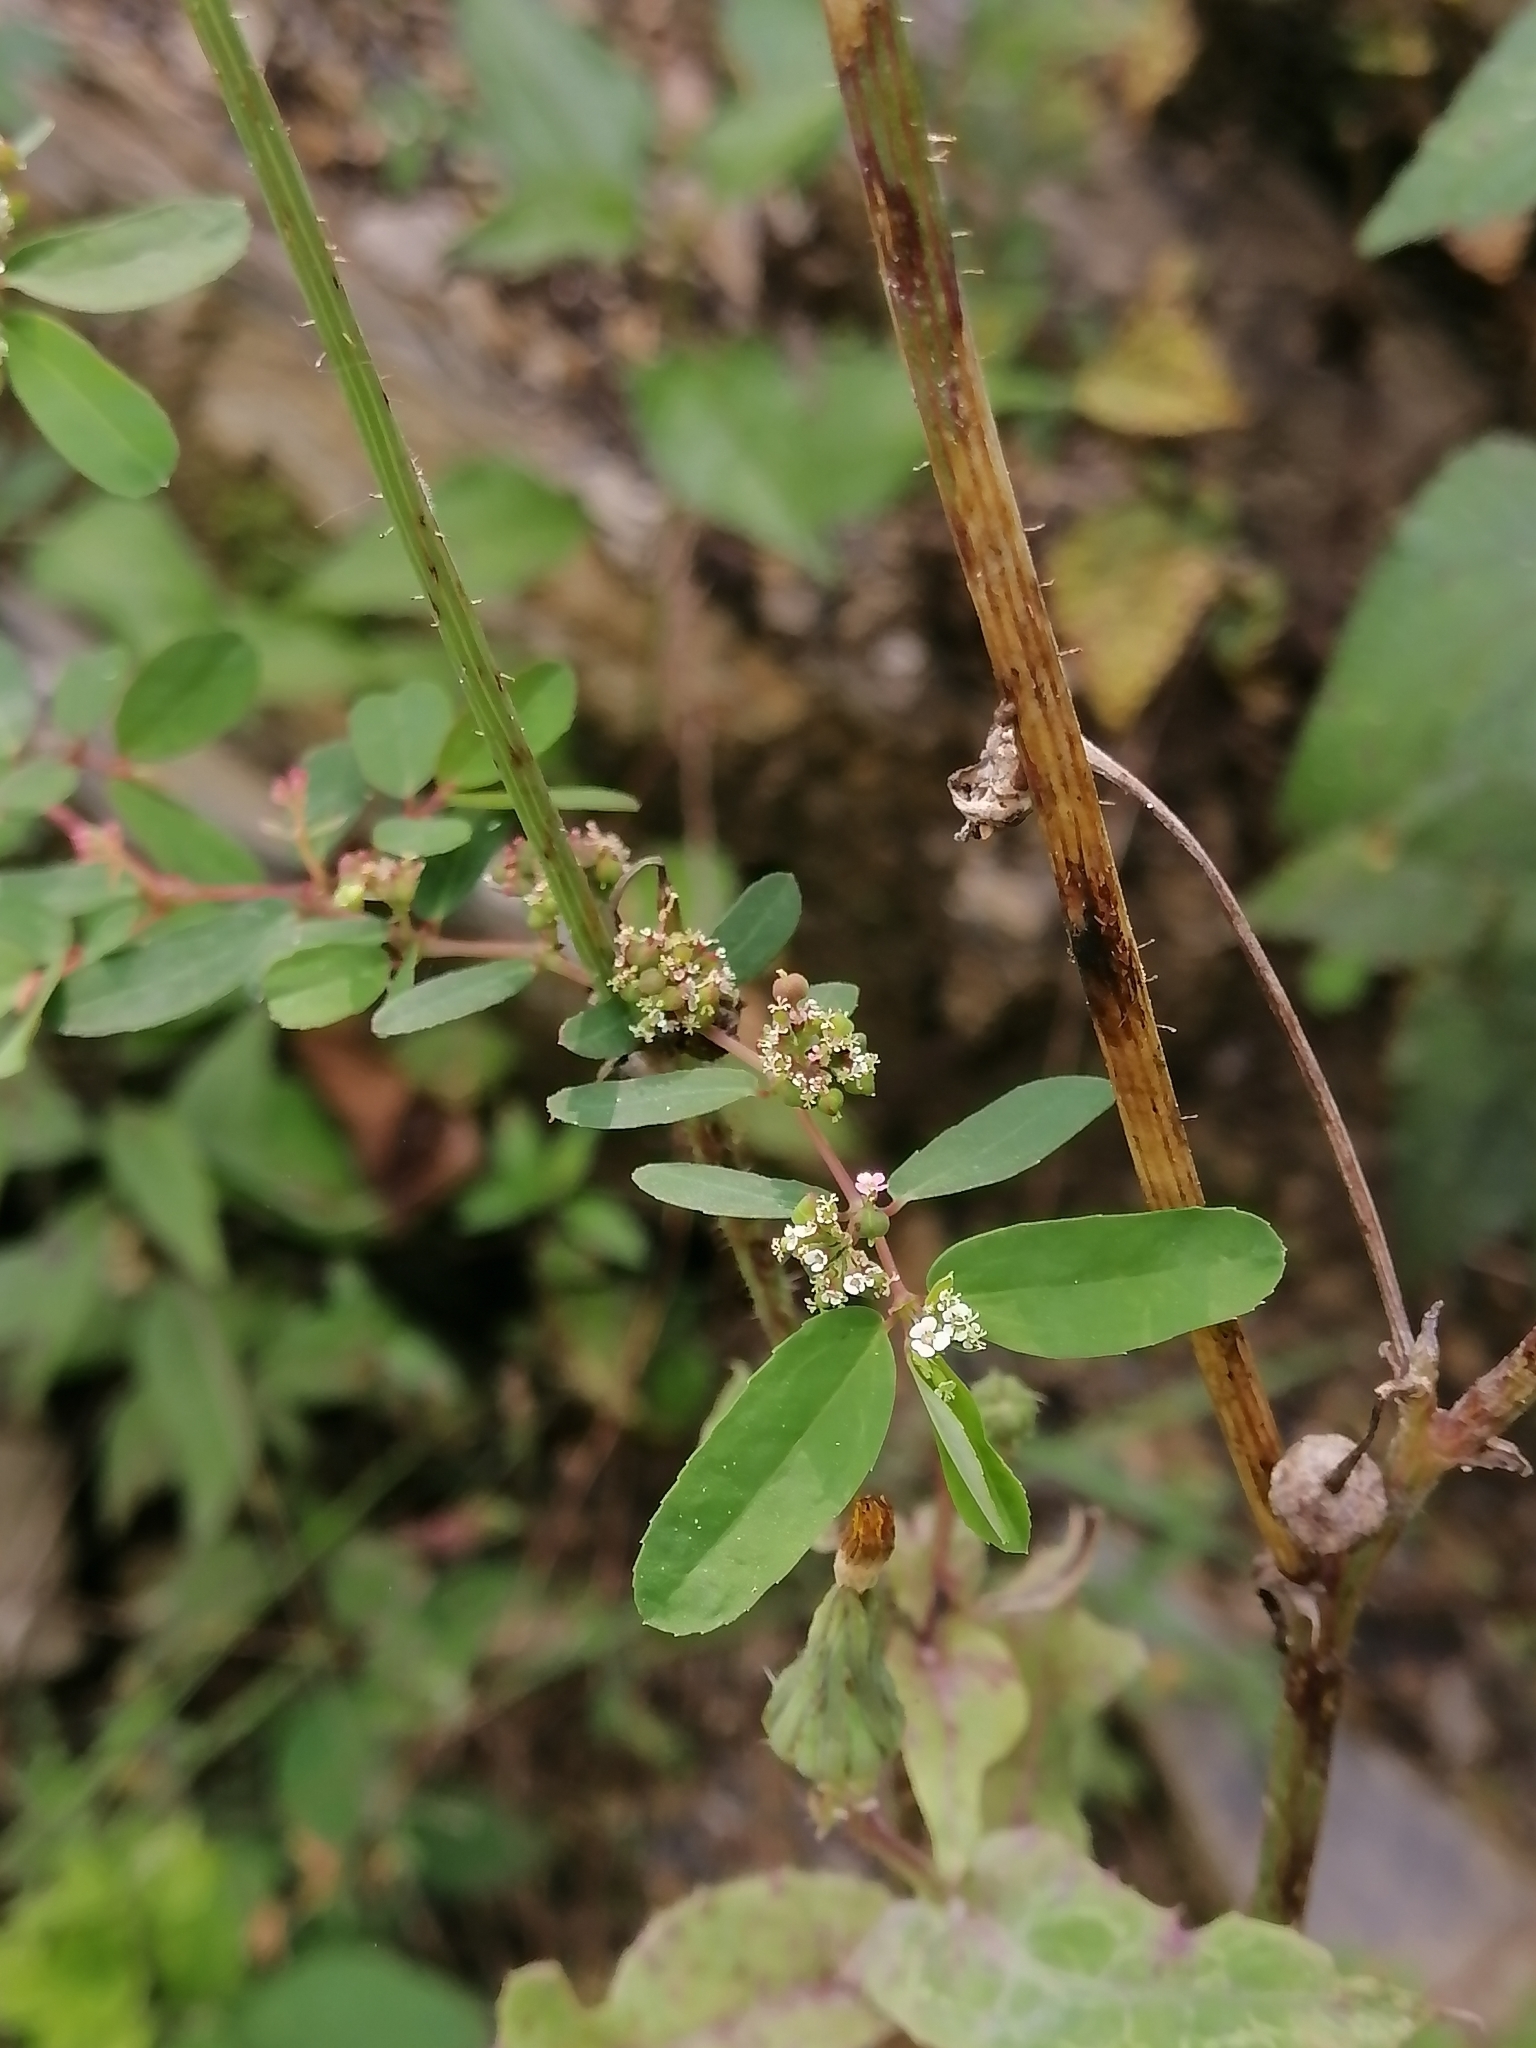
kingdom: Plantae
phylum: Tracheophyta
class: Magnoliopsida
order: Malpighiales
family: Euphorbiaceae
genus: Euphorbia
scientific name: Euphorbia hypericifolia
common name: Graceful sandmat
